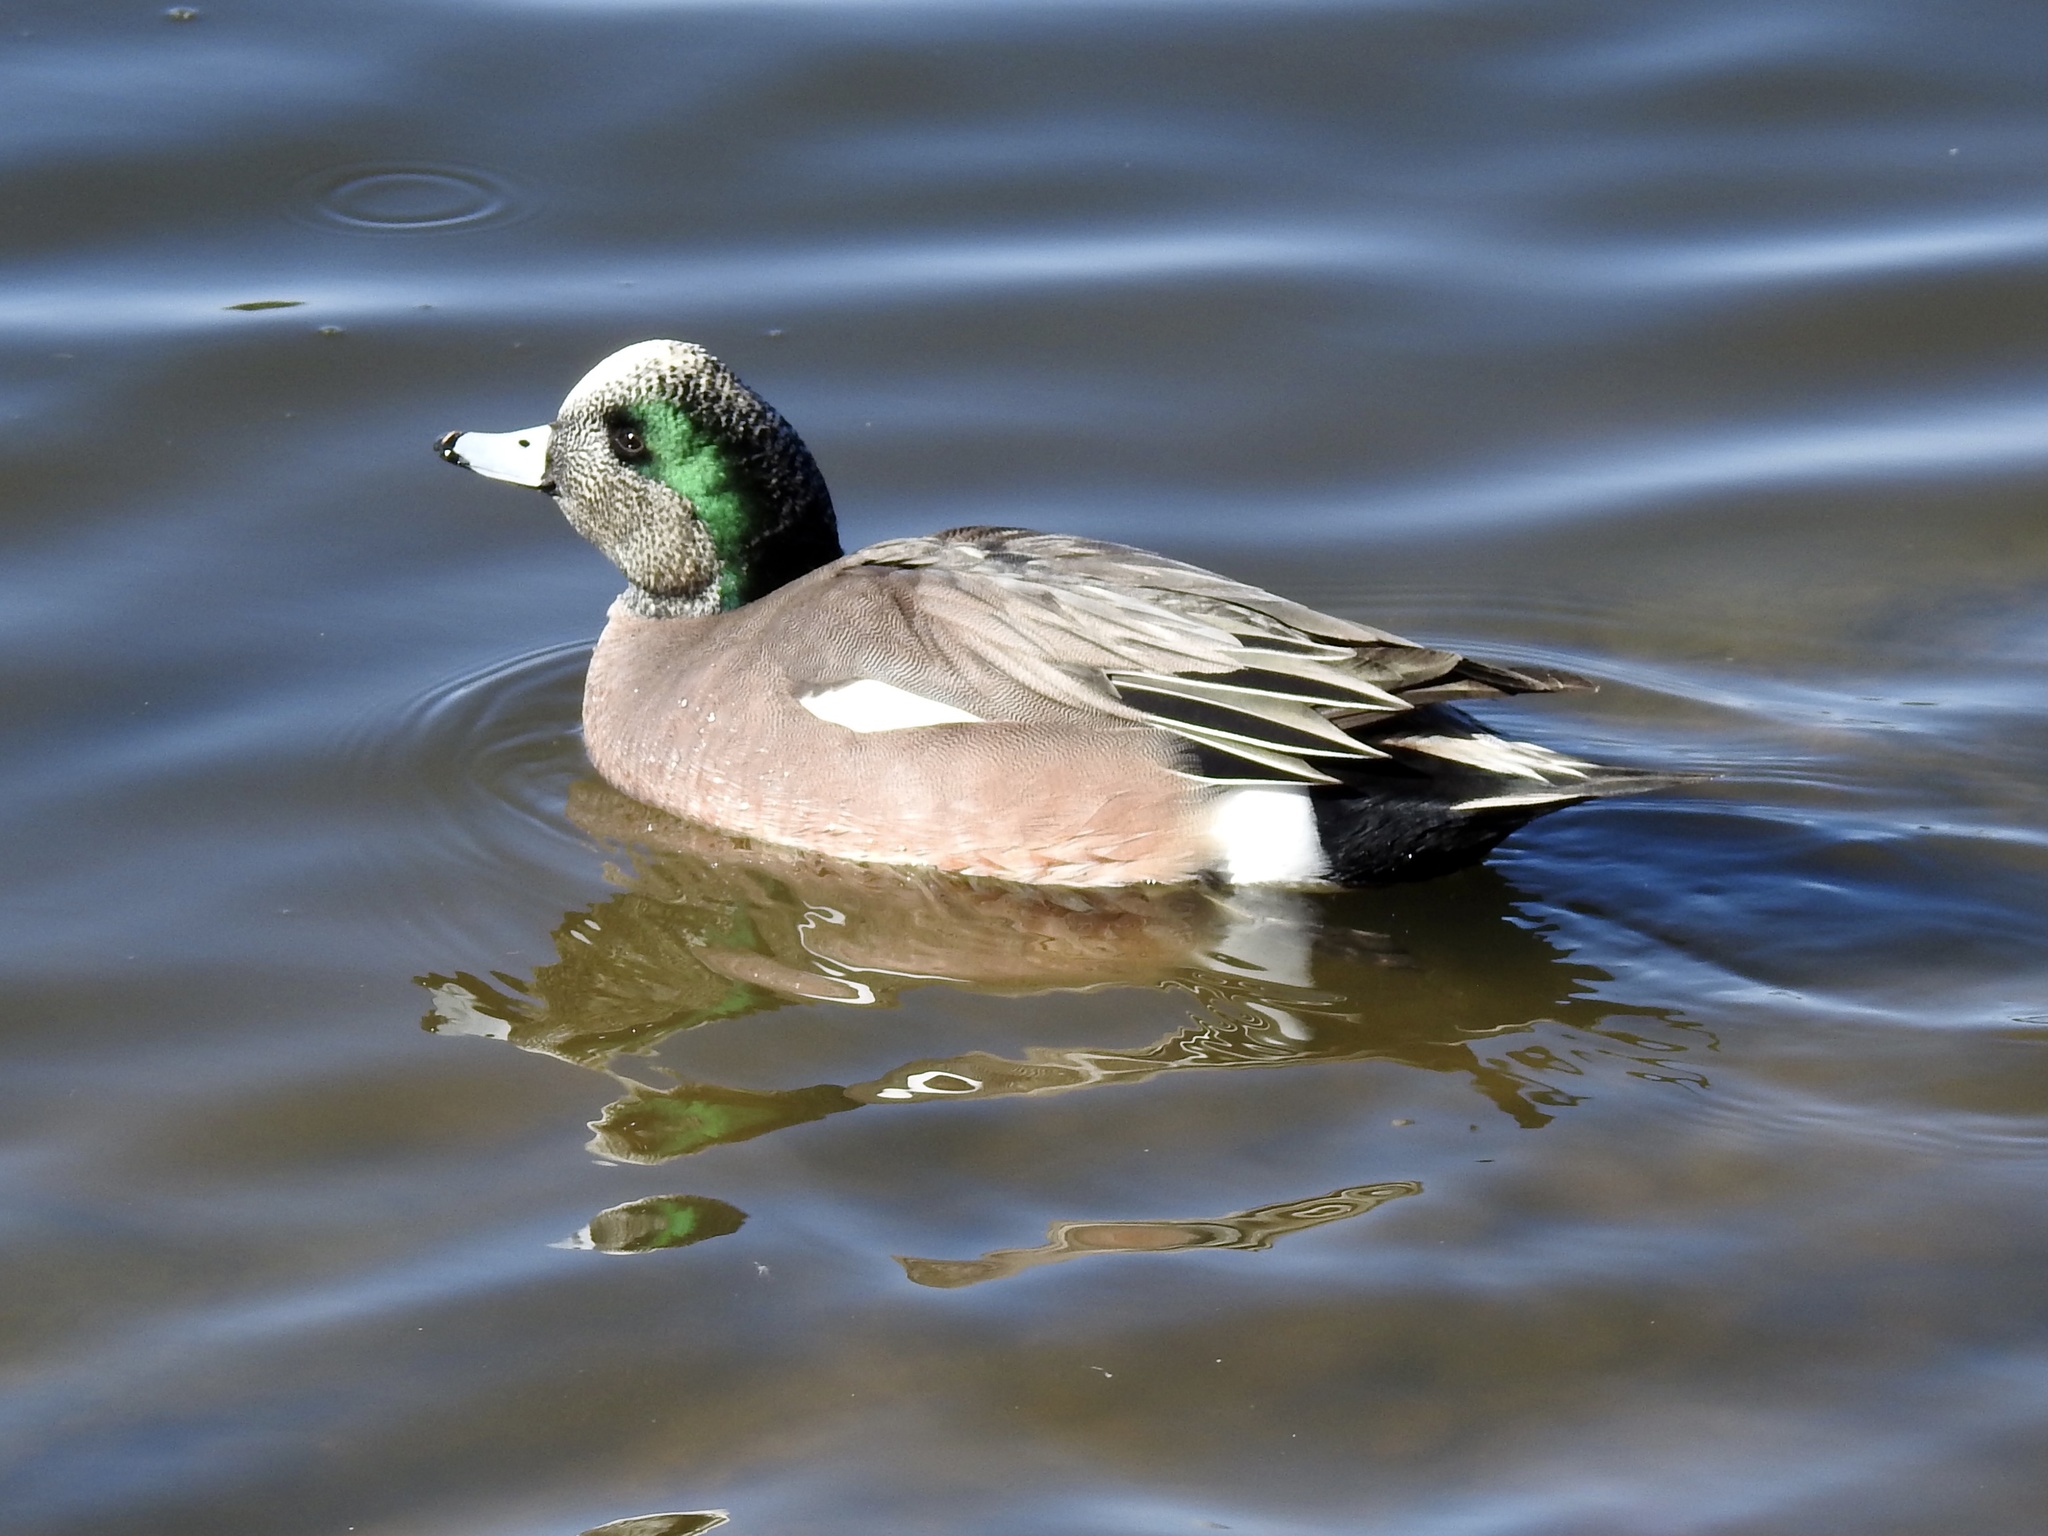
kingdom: Animalia
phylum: Chordata
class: Aves
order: Anseriformes
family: Anatidae
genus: Mareca
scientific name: Mareca americana
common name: American wigeon
